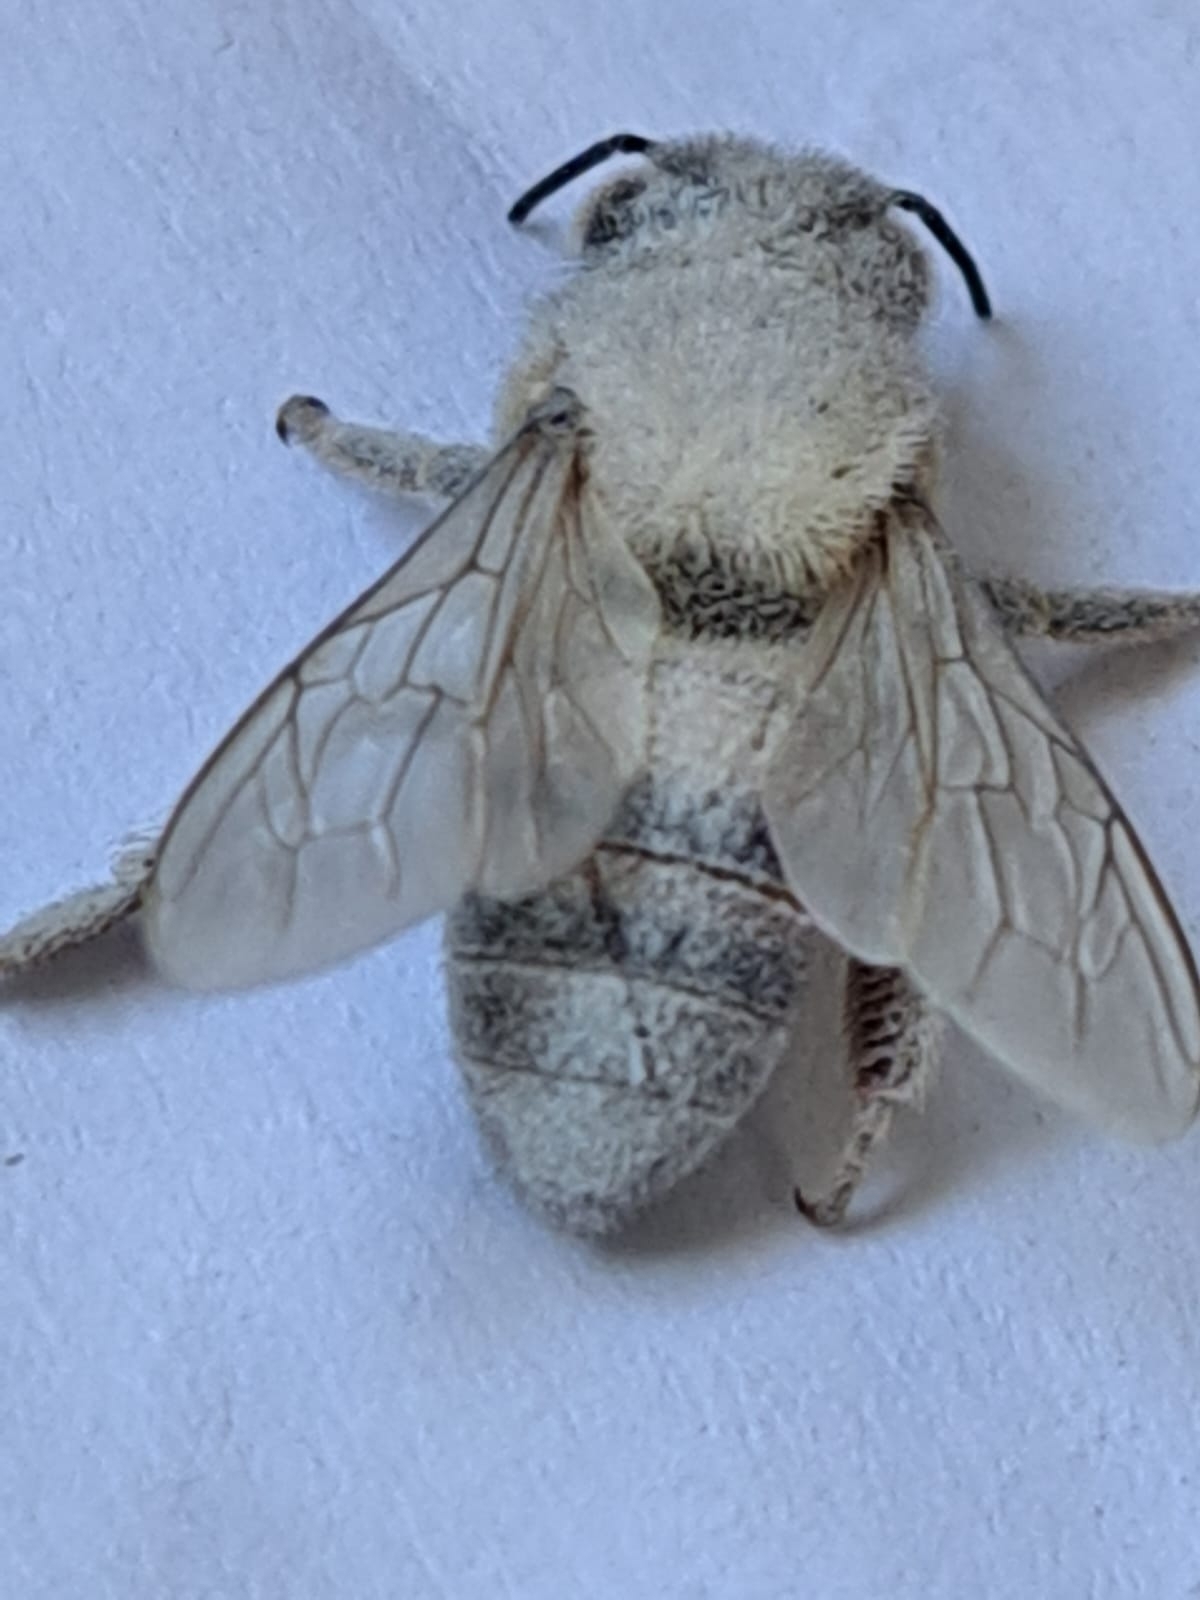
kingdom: Animalia
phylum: Arthropoda
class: Insecta
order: Hymenoptera
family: Apidae
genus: Apis
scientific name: Apis mellifera
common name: Honey bee
